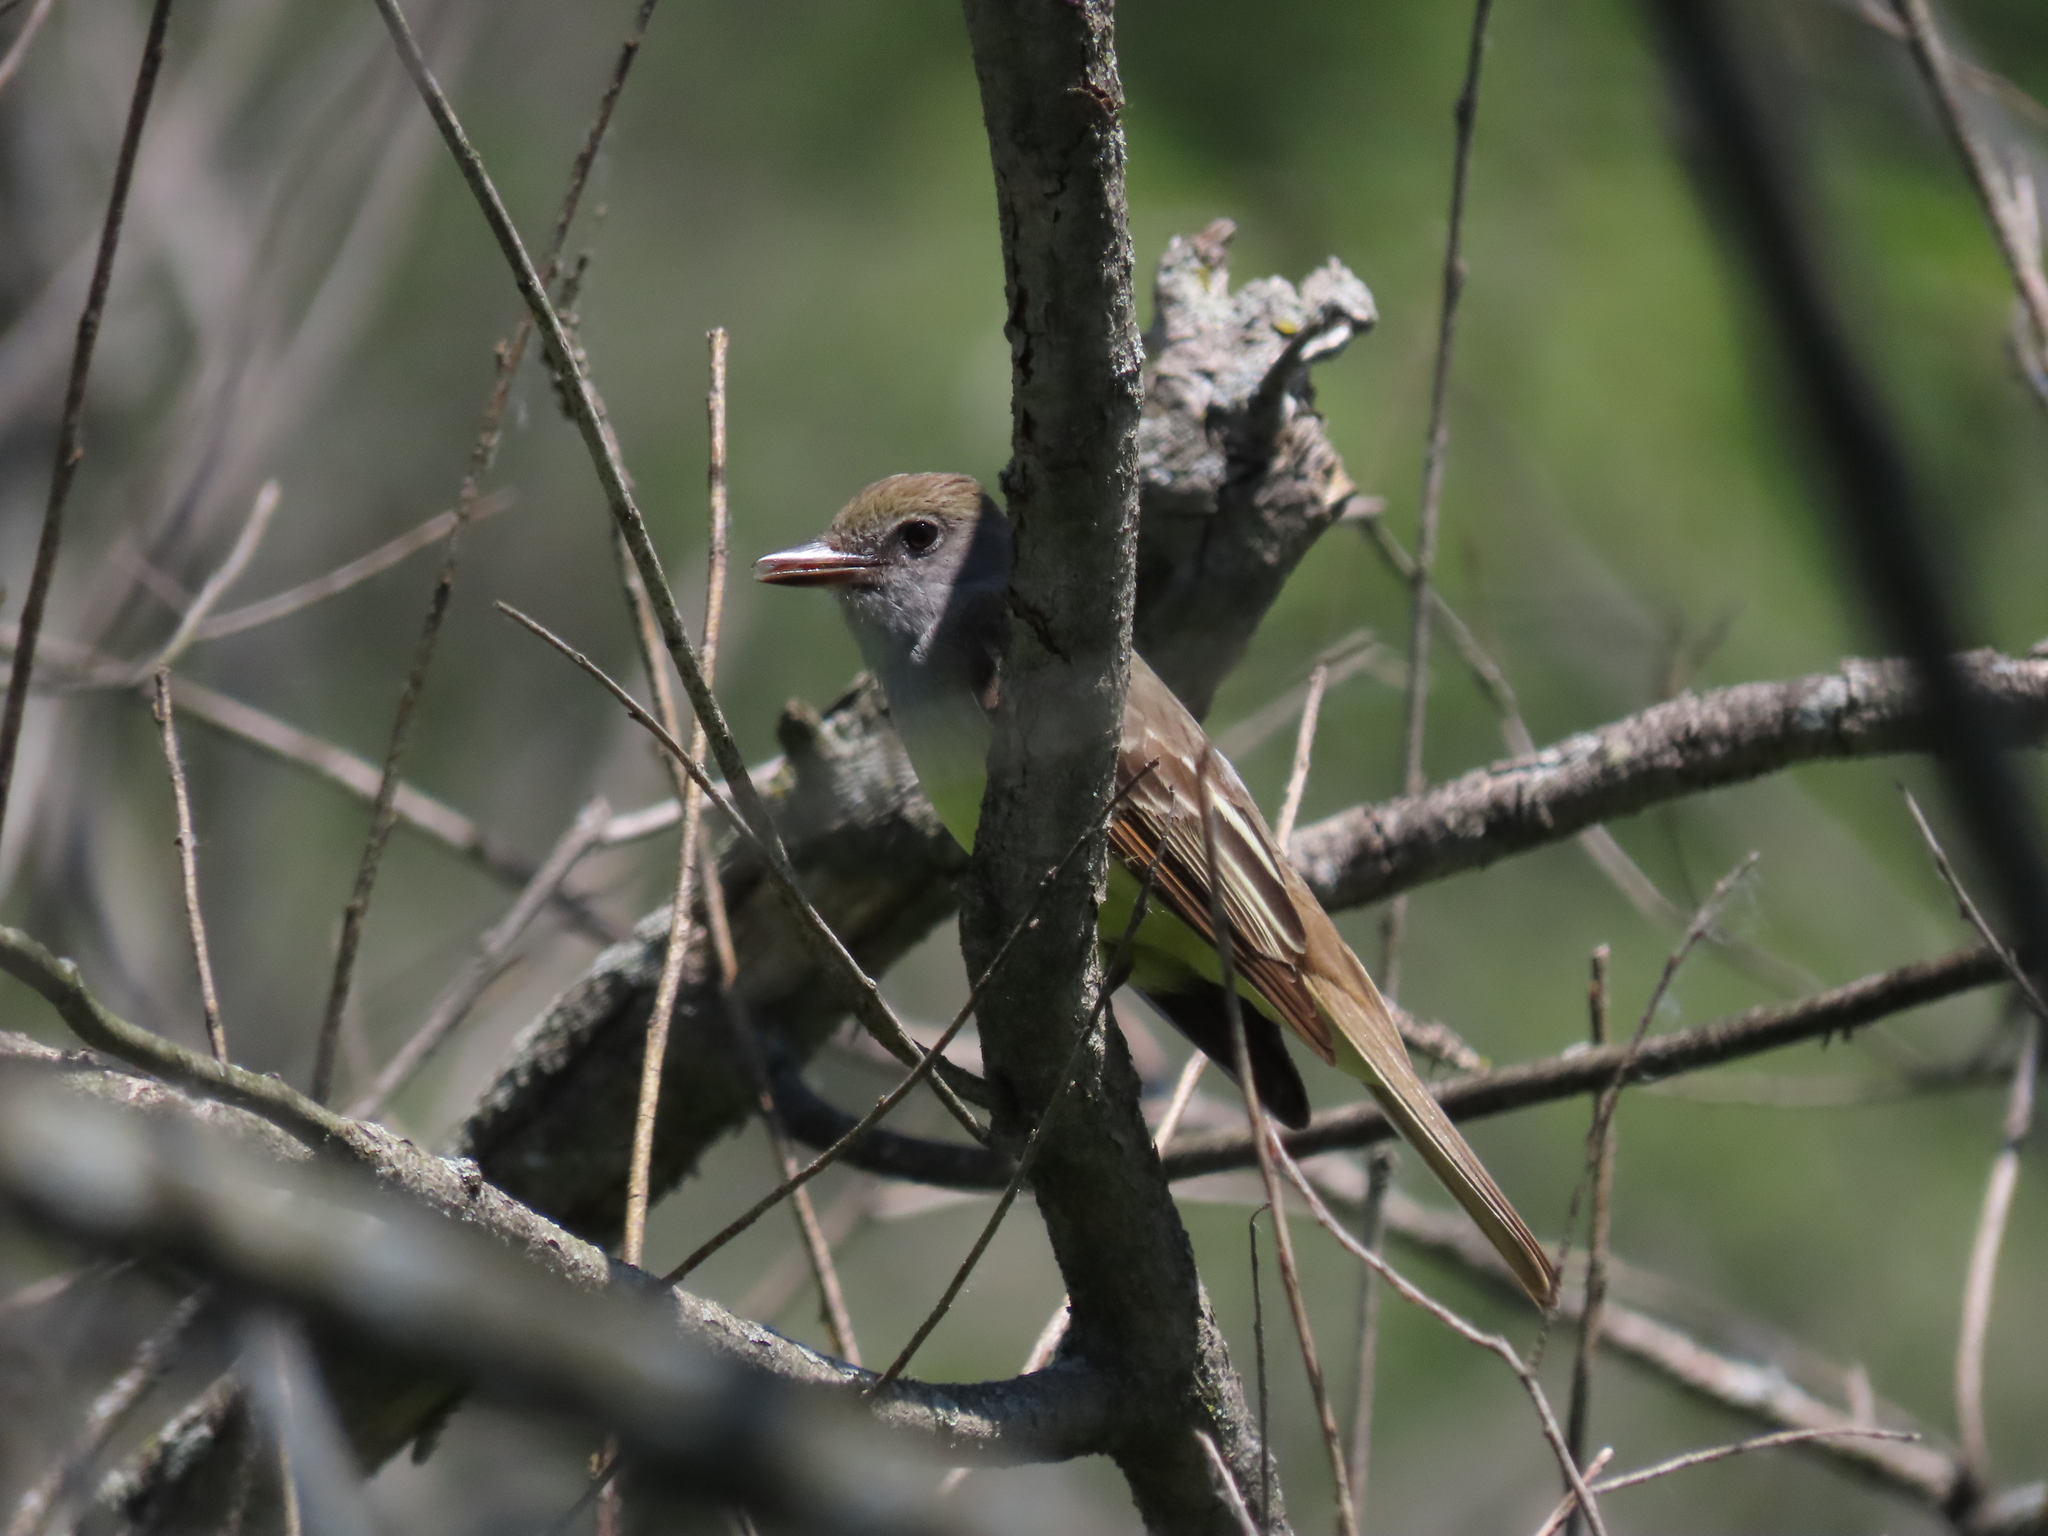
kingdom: Animalia
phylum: Chordata
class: Aves
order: Passeriformes
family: Tyrannidae
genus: Myiarchus
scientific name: Myiarchus crinitus
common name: Great crested flycatcher
